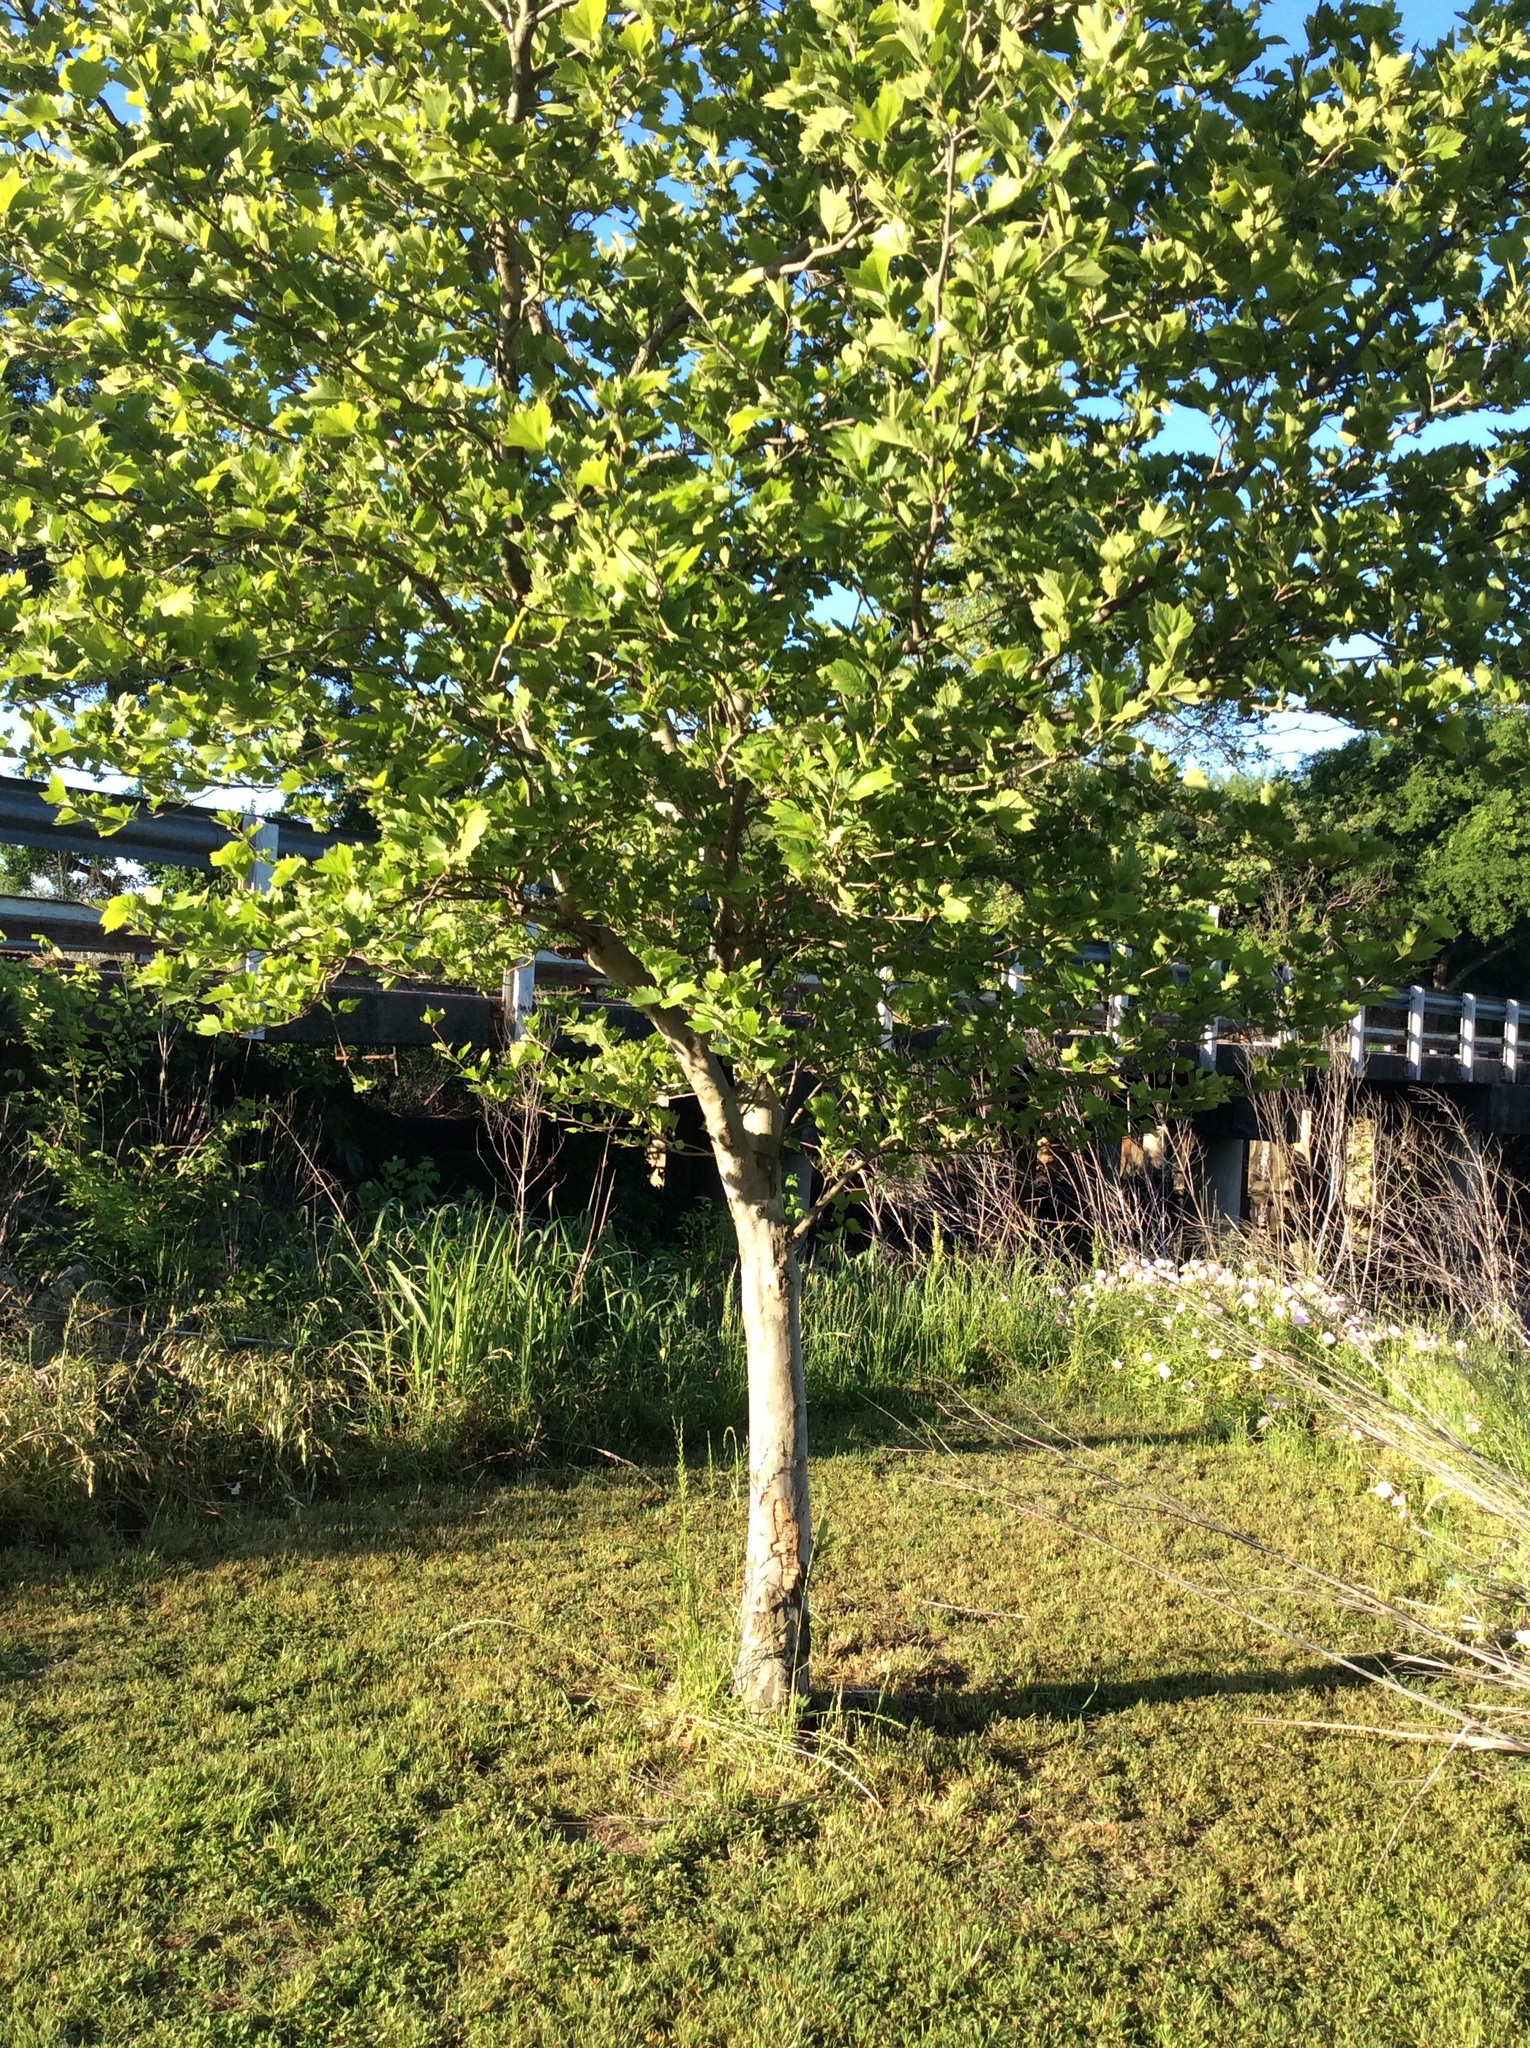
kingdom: Plantae
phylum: Tracheophyta
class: Magnoliopsida
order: Proteales
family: Platanaceae
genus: Platanus
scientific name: Platanus occidentalis
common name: American sycamore
